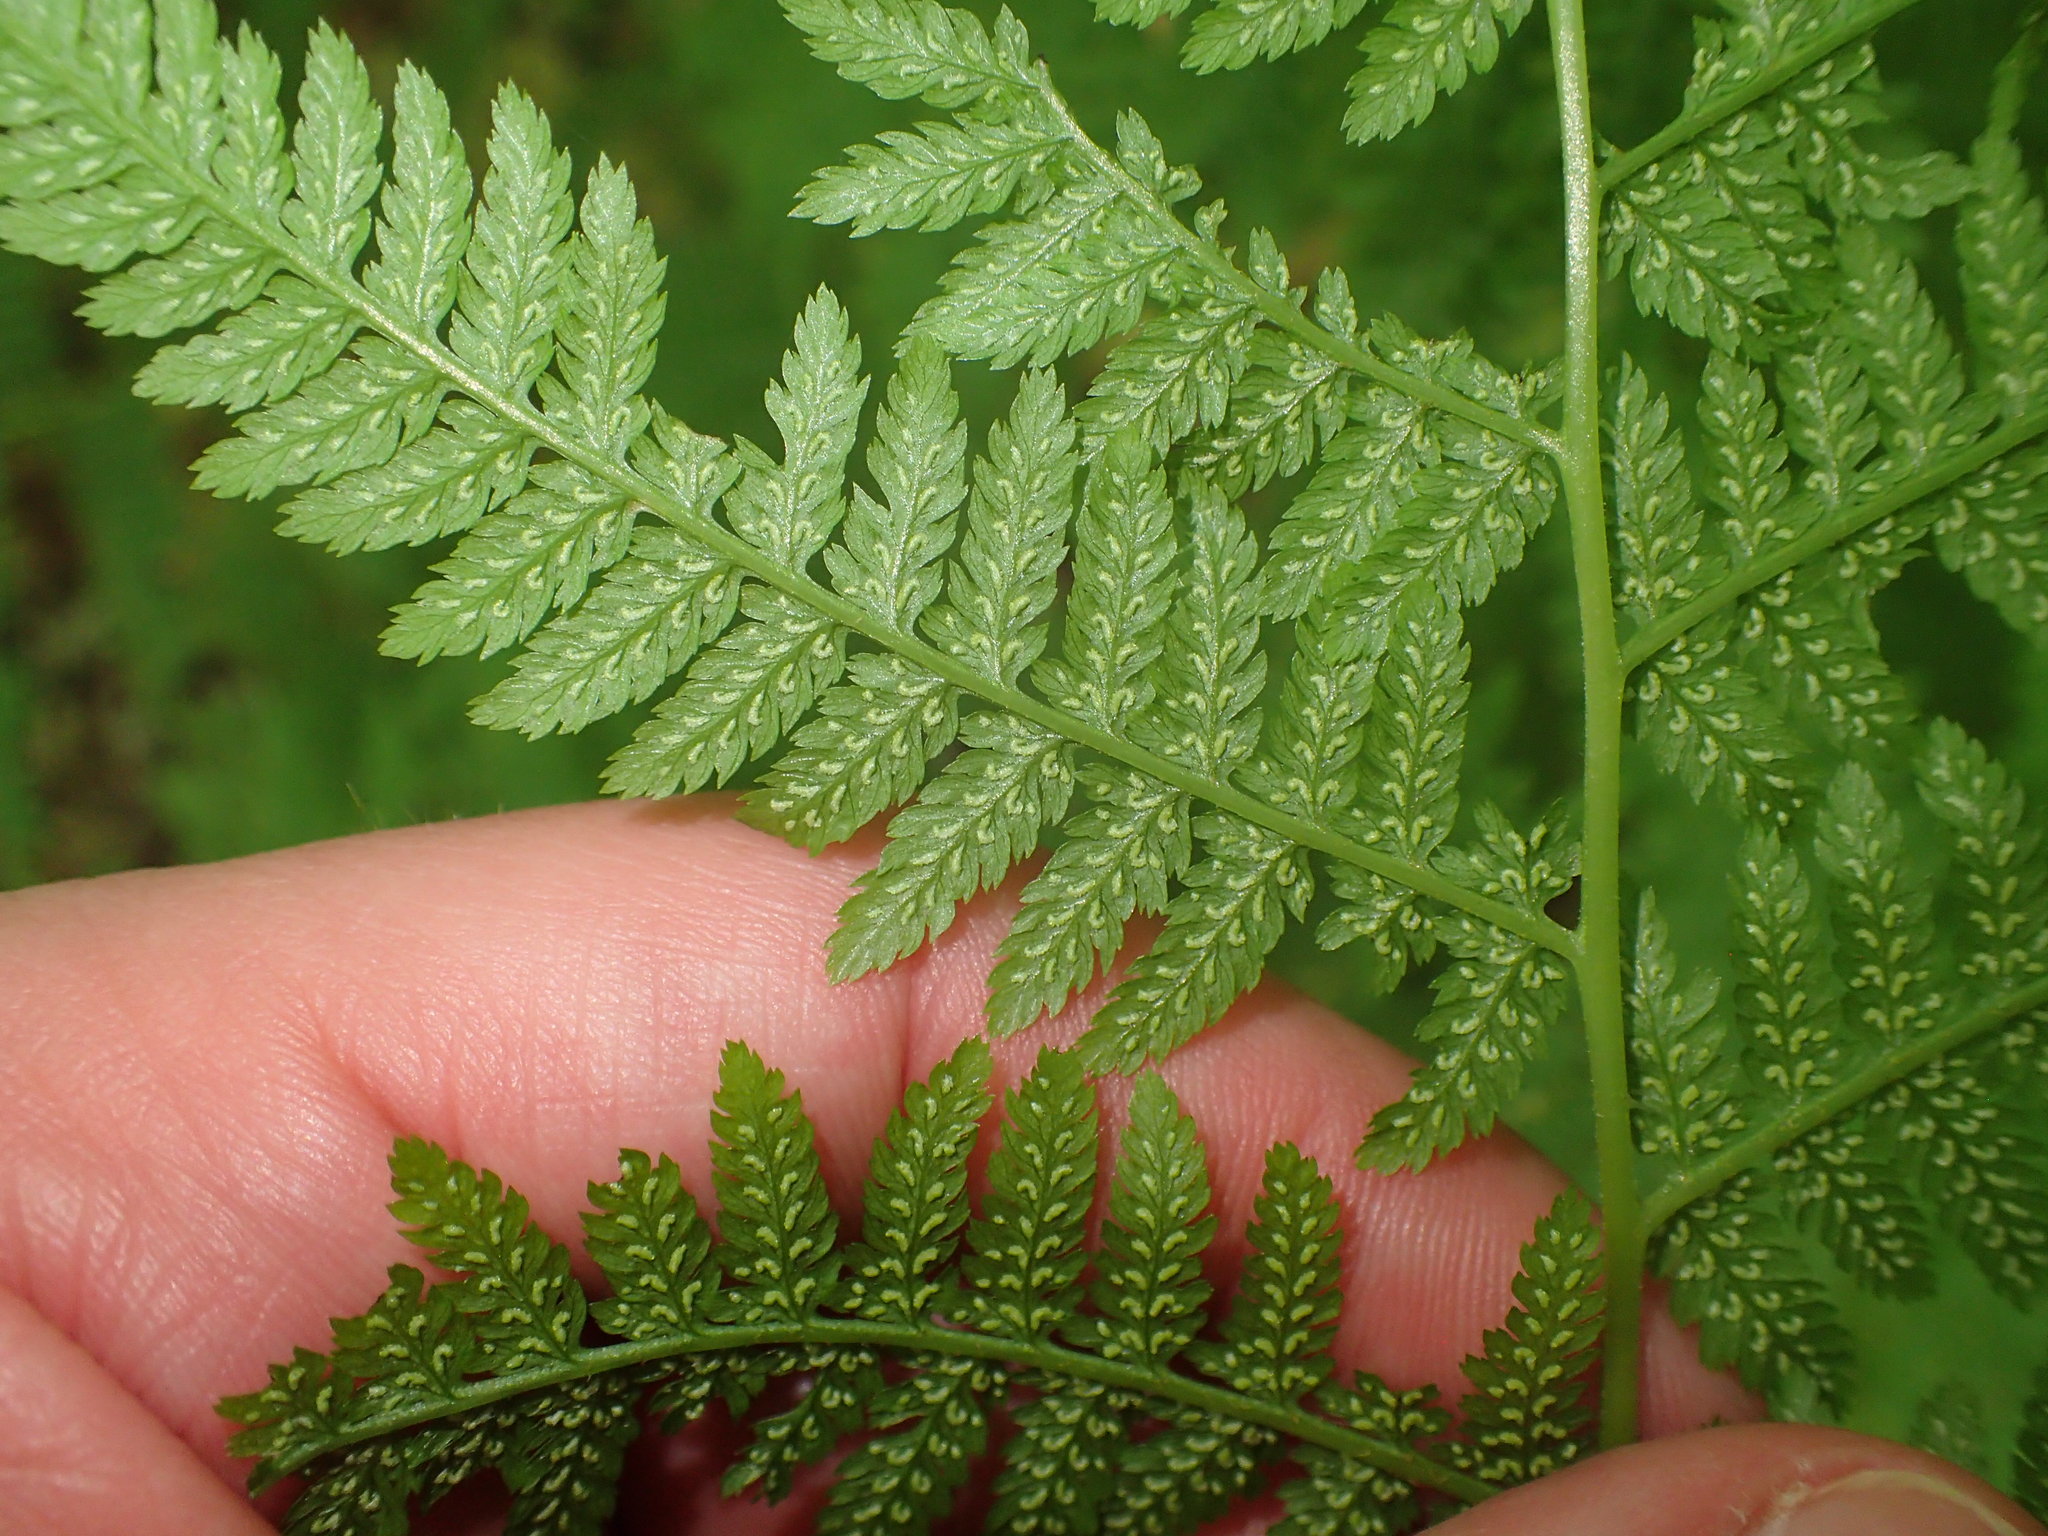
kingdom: Plantae
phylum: Tracheophyta
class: Polypodiopsida
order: Polypodiales
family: Athyriaceae
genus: Athyrium
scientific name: Athyrium angustum
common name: Northern lady fern
